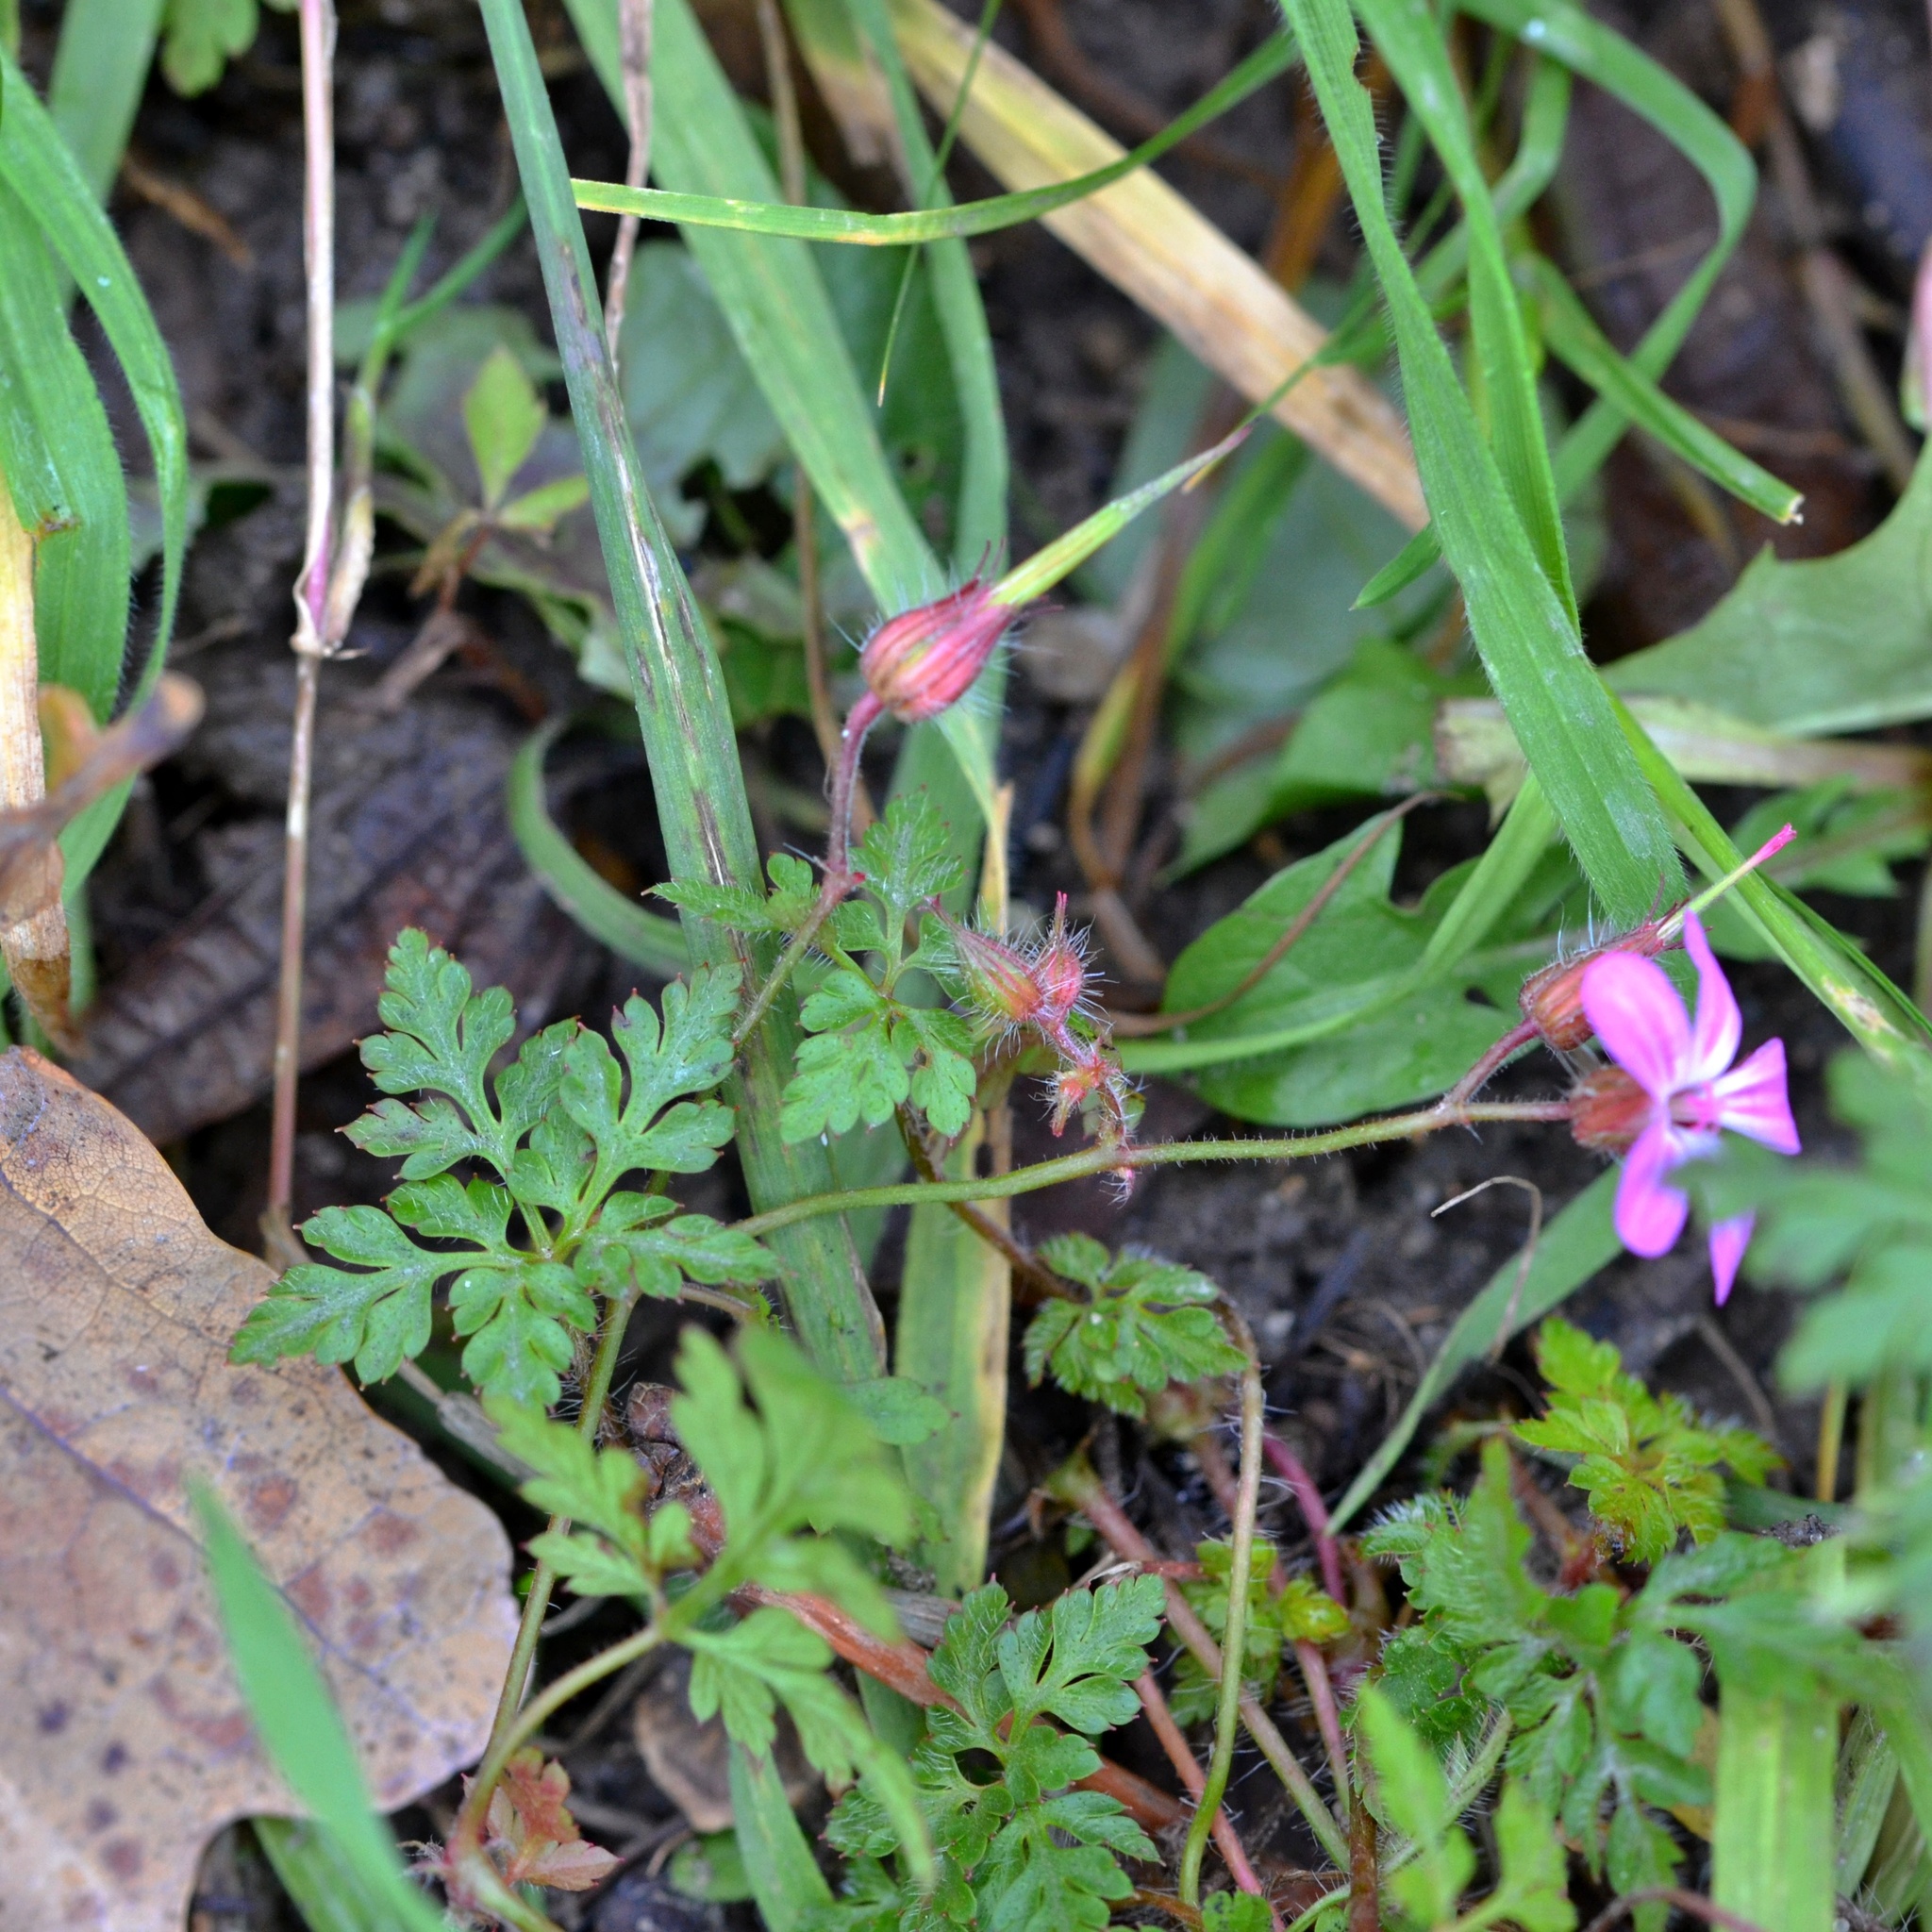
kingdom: Plantae
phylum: Tracheophyta
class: Magnoliopsida
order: Geraniales
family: Geraniaceae
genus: Geranium
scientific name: Geranium robertianum
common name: Herb-robert
